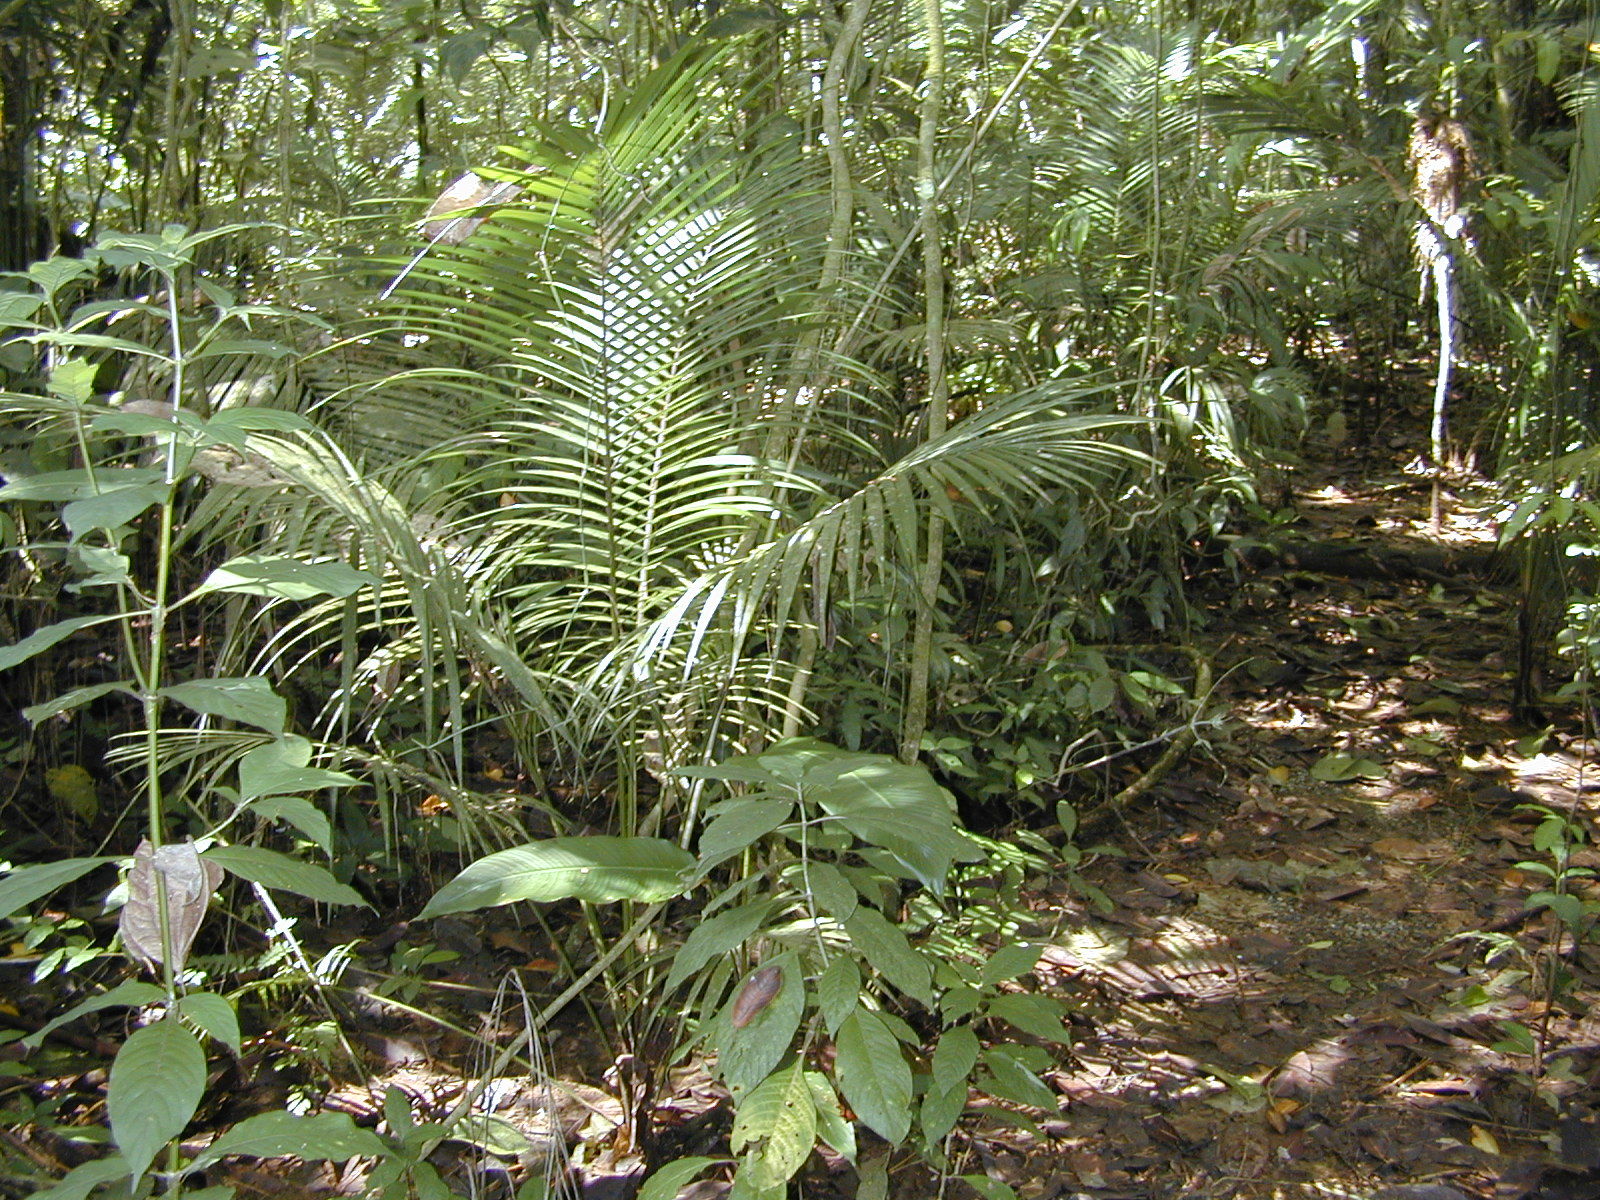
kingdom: Plantae
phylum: Tracheophyta
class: Liliopsida
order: Arecales
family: Arecaceae
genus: Roystonea
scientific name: Roystonea regia
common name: Florida royal palm
